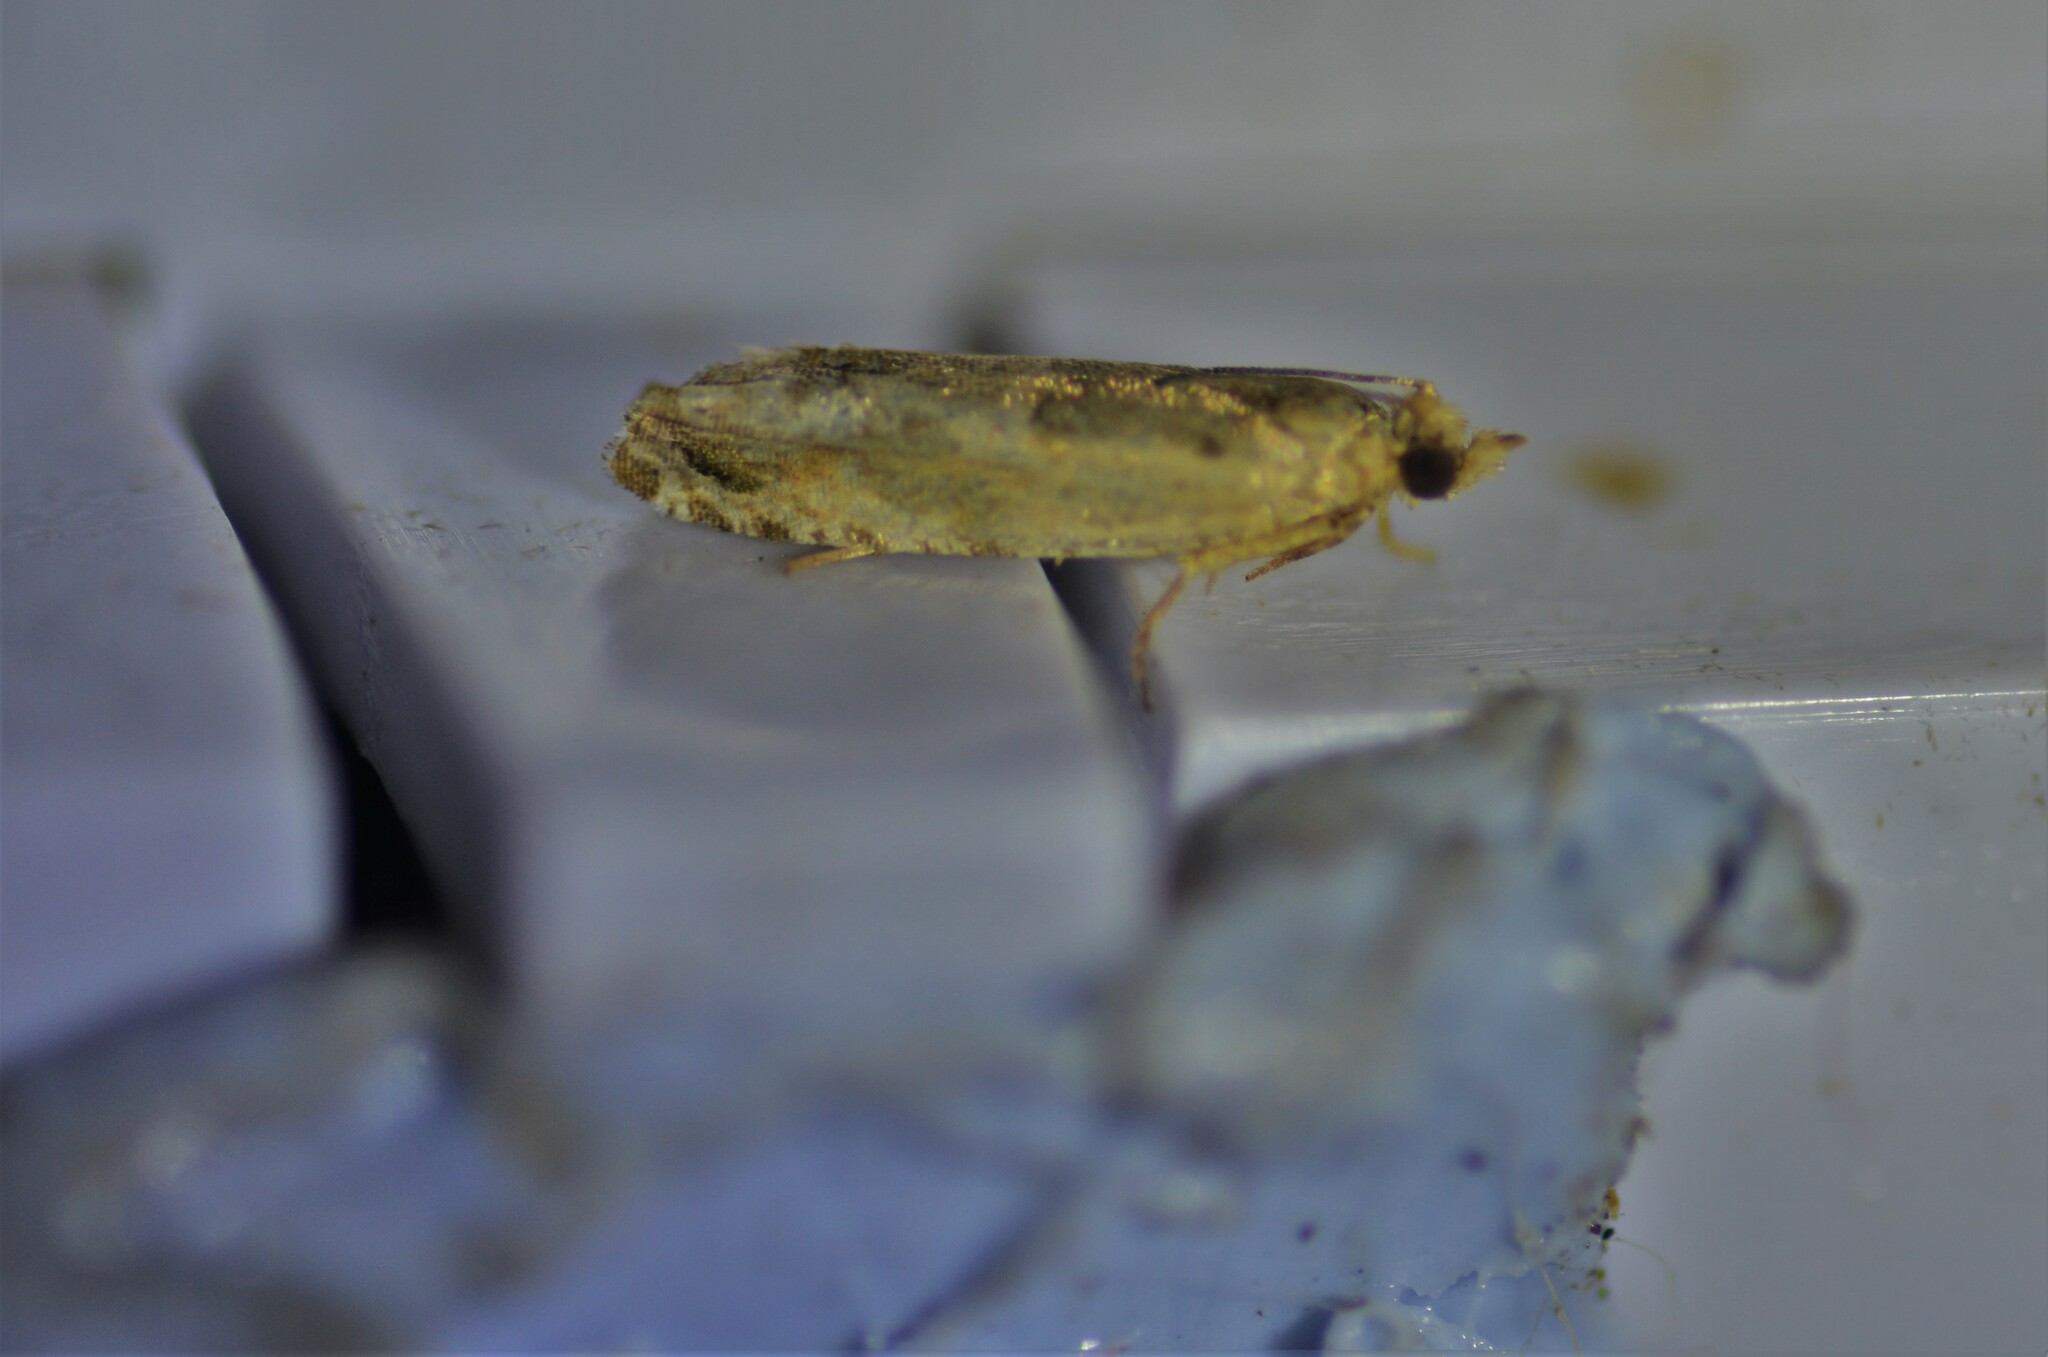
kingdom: Animalia
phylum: Arthropoda
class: Insecta
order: Lepidoptera
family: Tortricidae
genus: Cydia
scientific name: Cydia succedana
